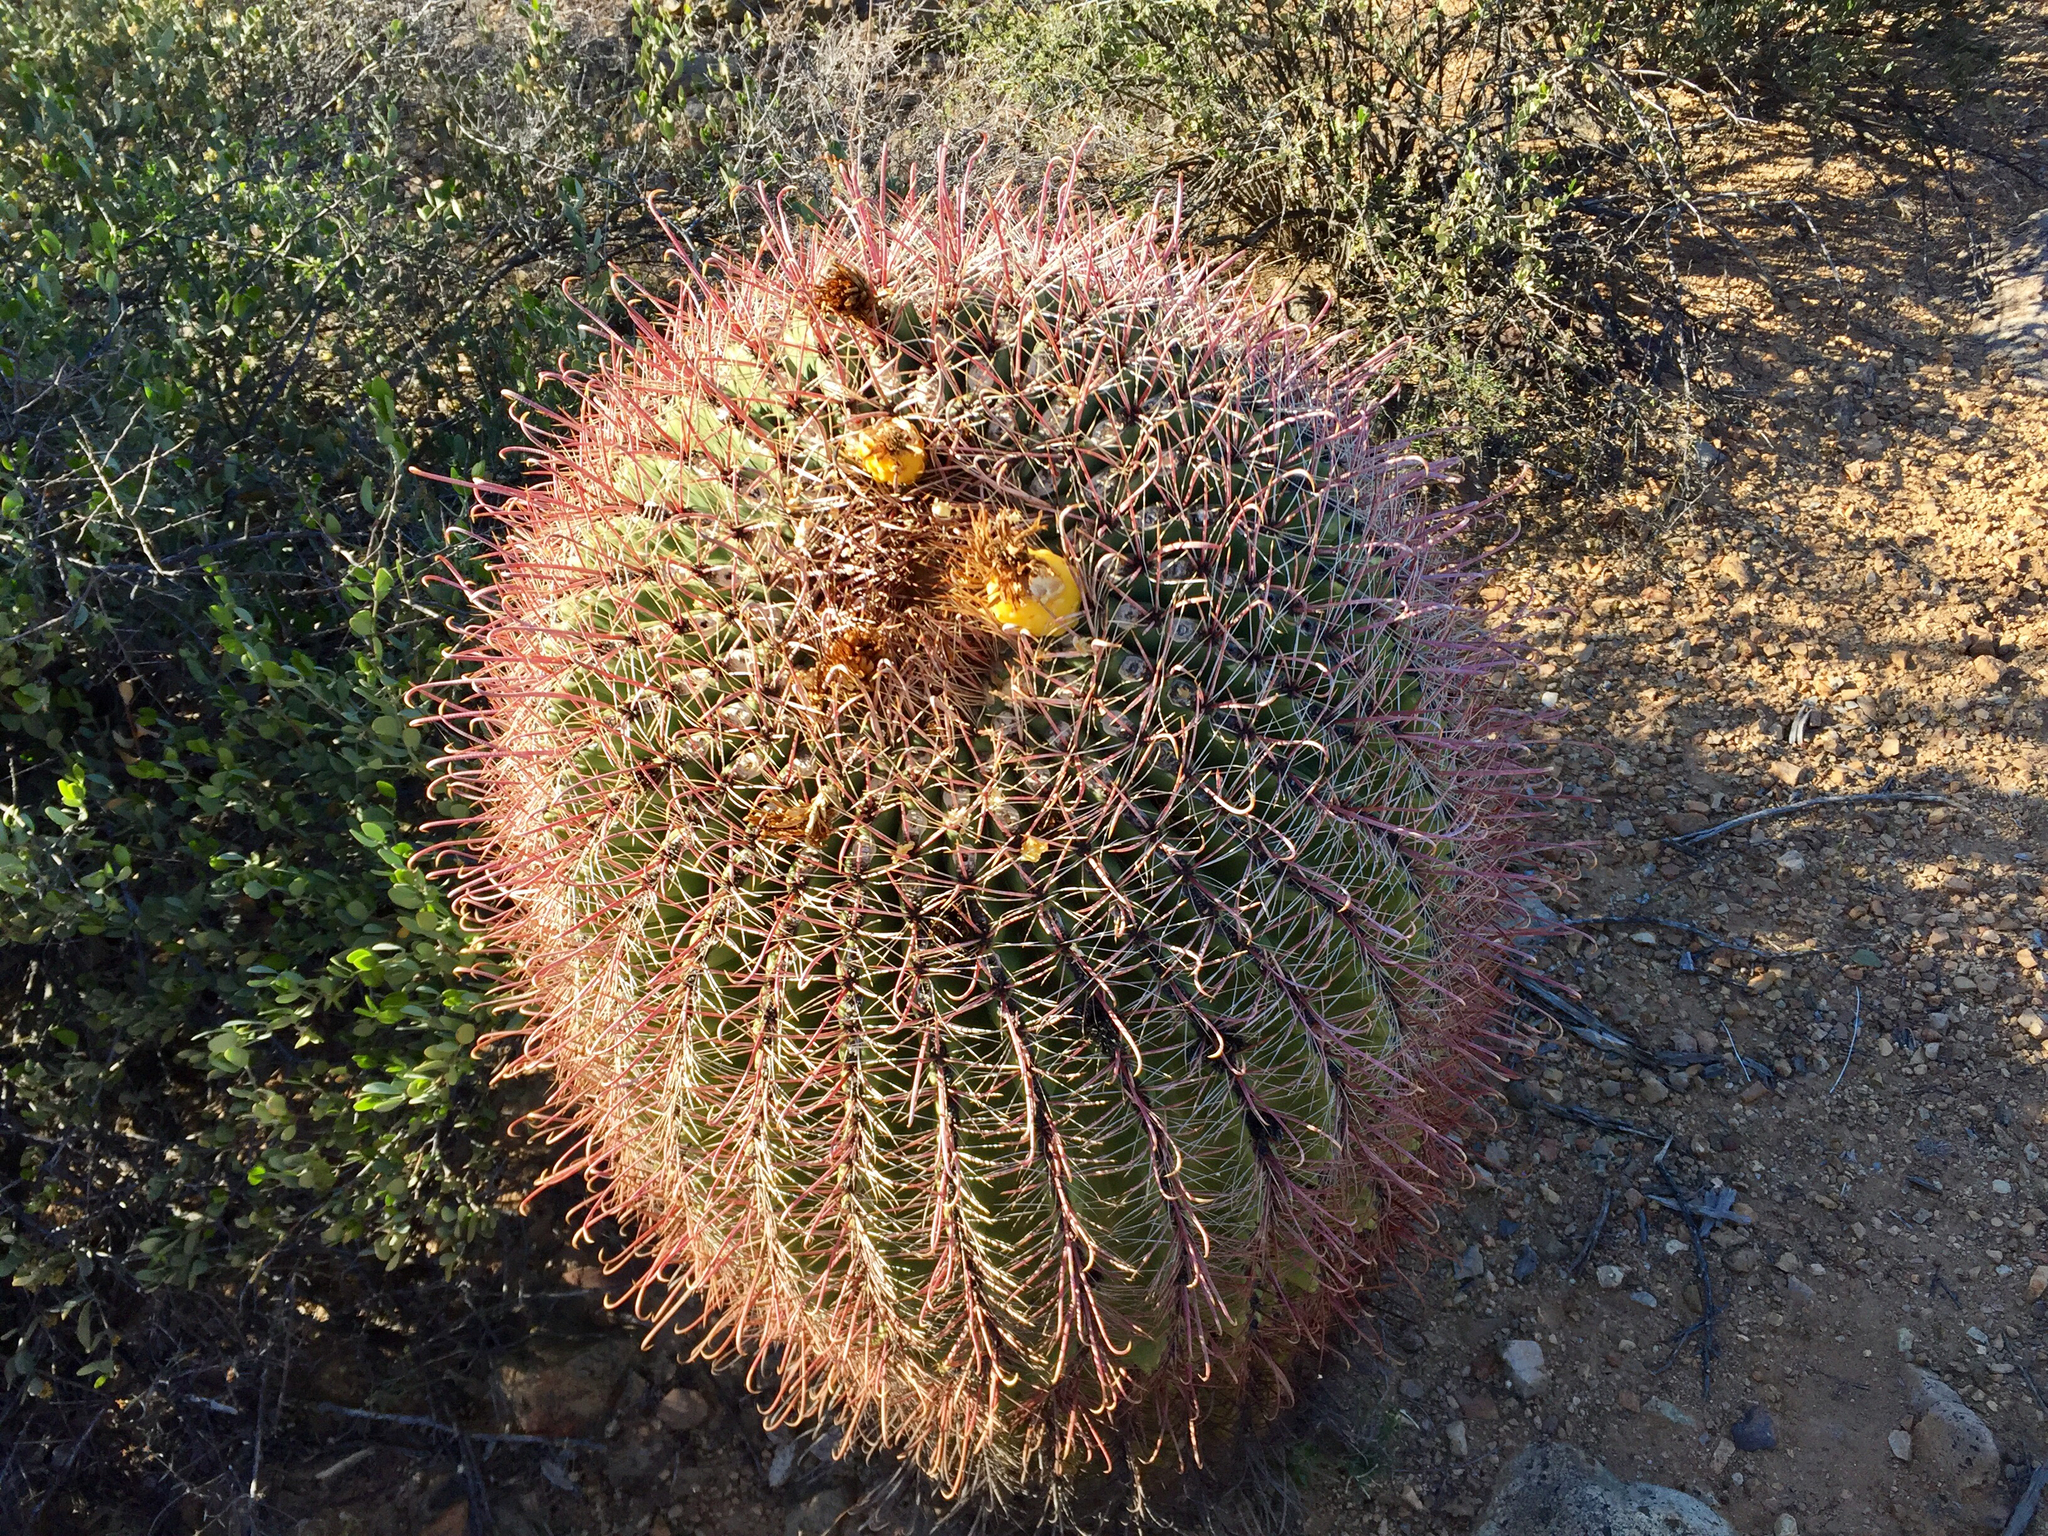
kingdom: Plantae
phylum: Tracheophyta
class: Magnoliopsida
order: Caryophyllales
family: Cactaceae
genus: Ferocactus
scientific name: Ferocactus wislizeni
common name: Candy barrel cactus
